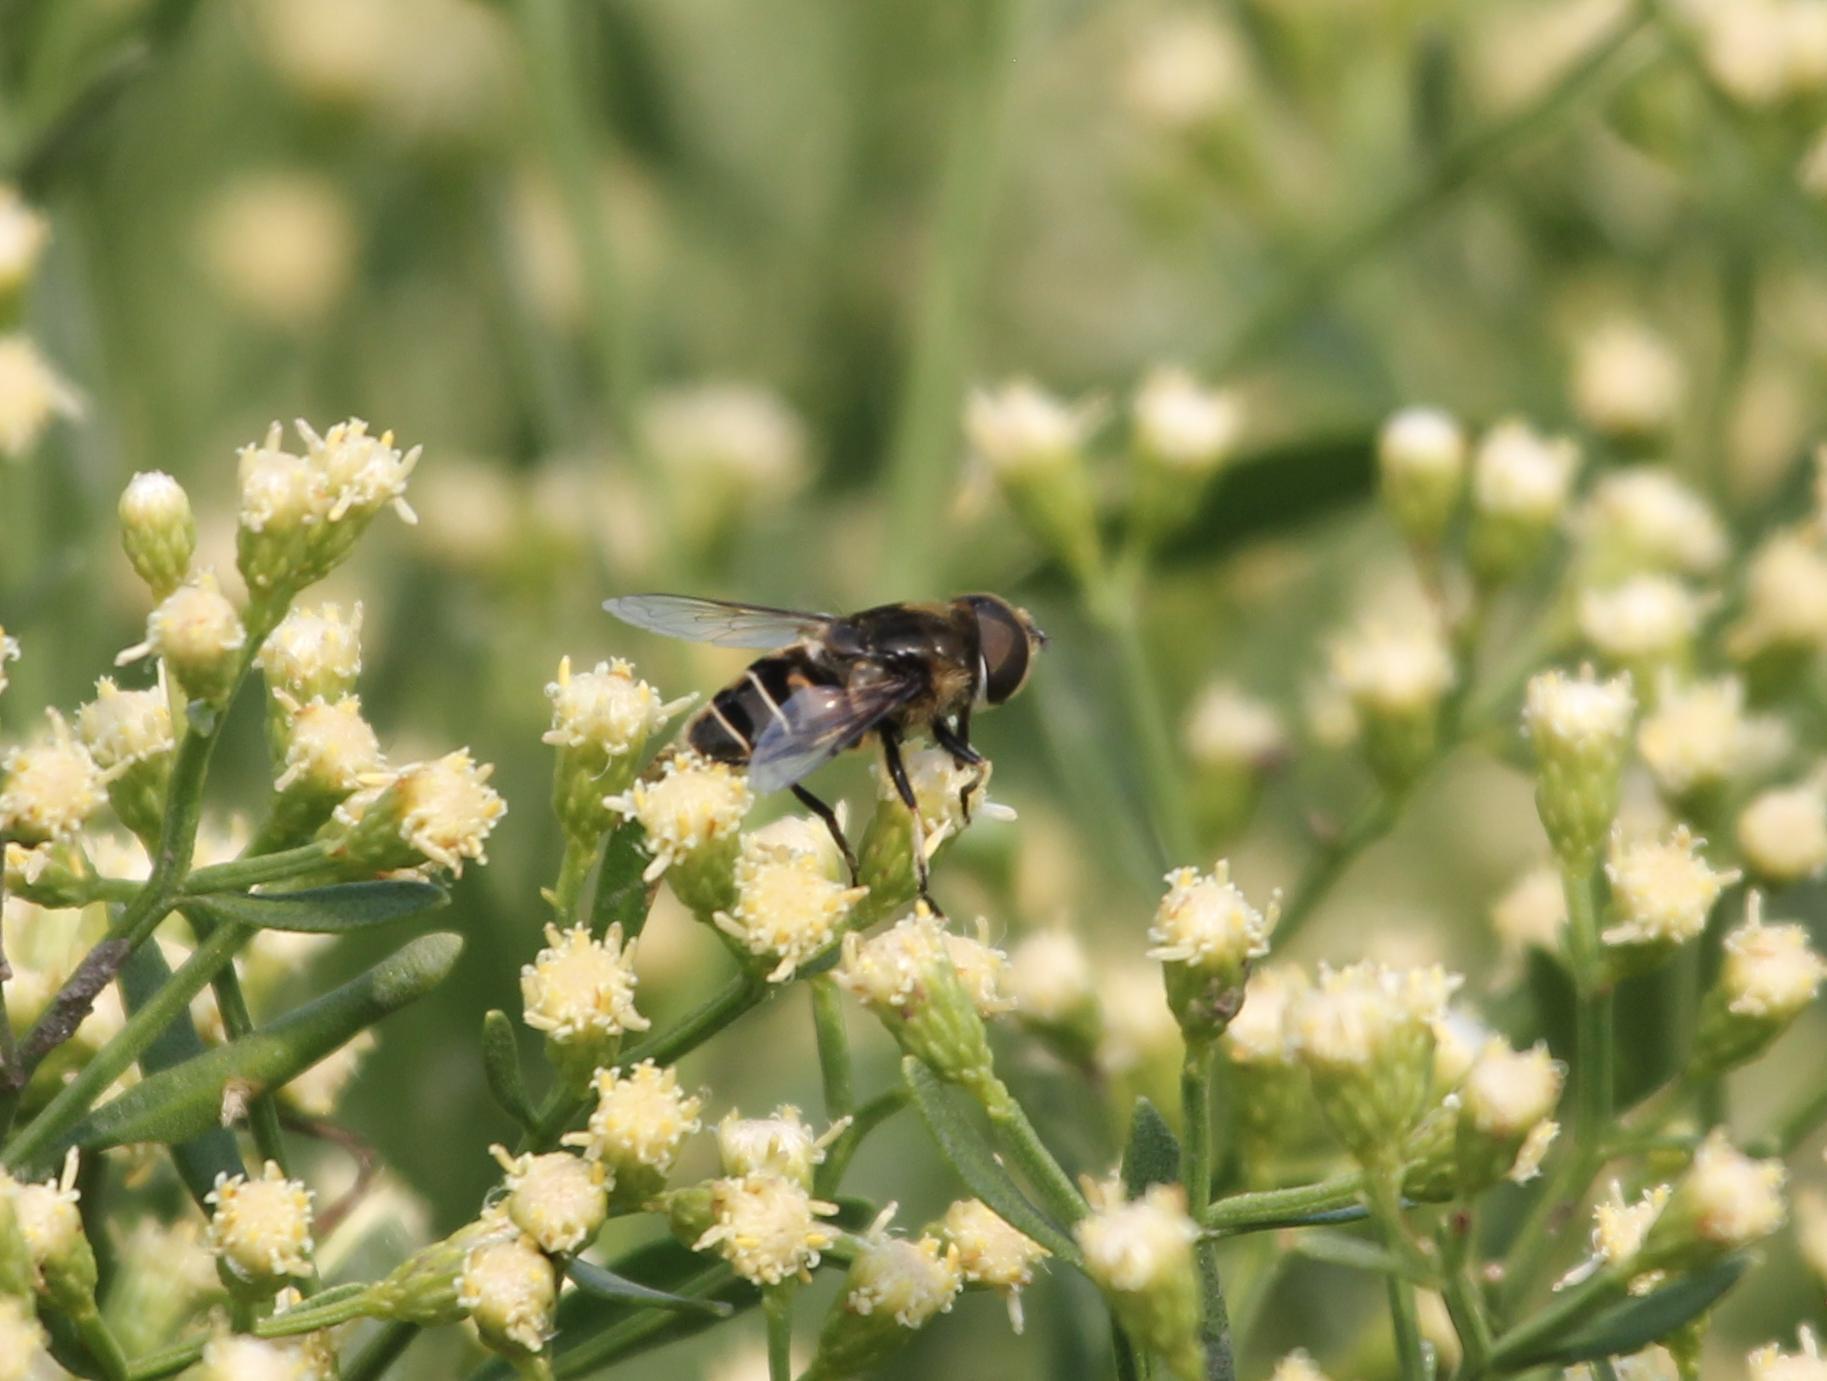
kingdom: Animalia
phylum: Arthropoda
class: Insecta
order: Diptera
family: Syrphidae
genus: Eristalis
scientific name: Eristalis dimidiata
